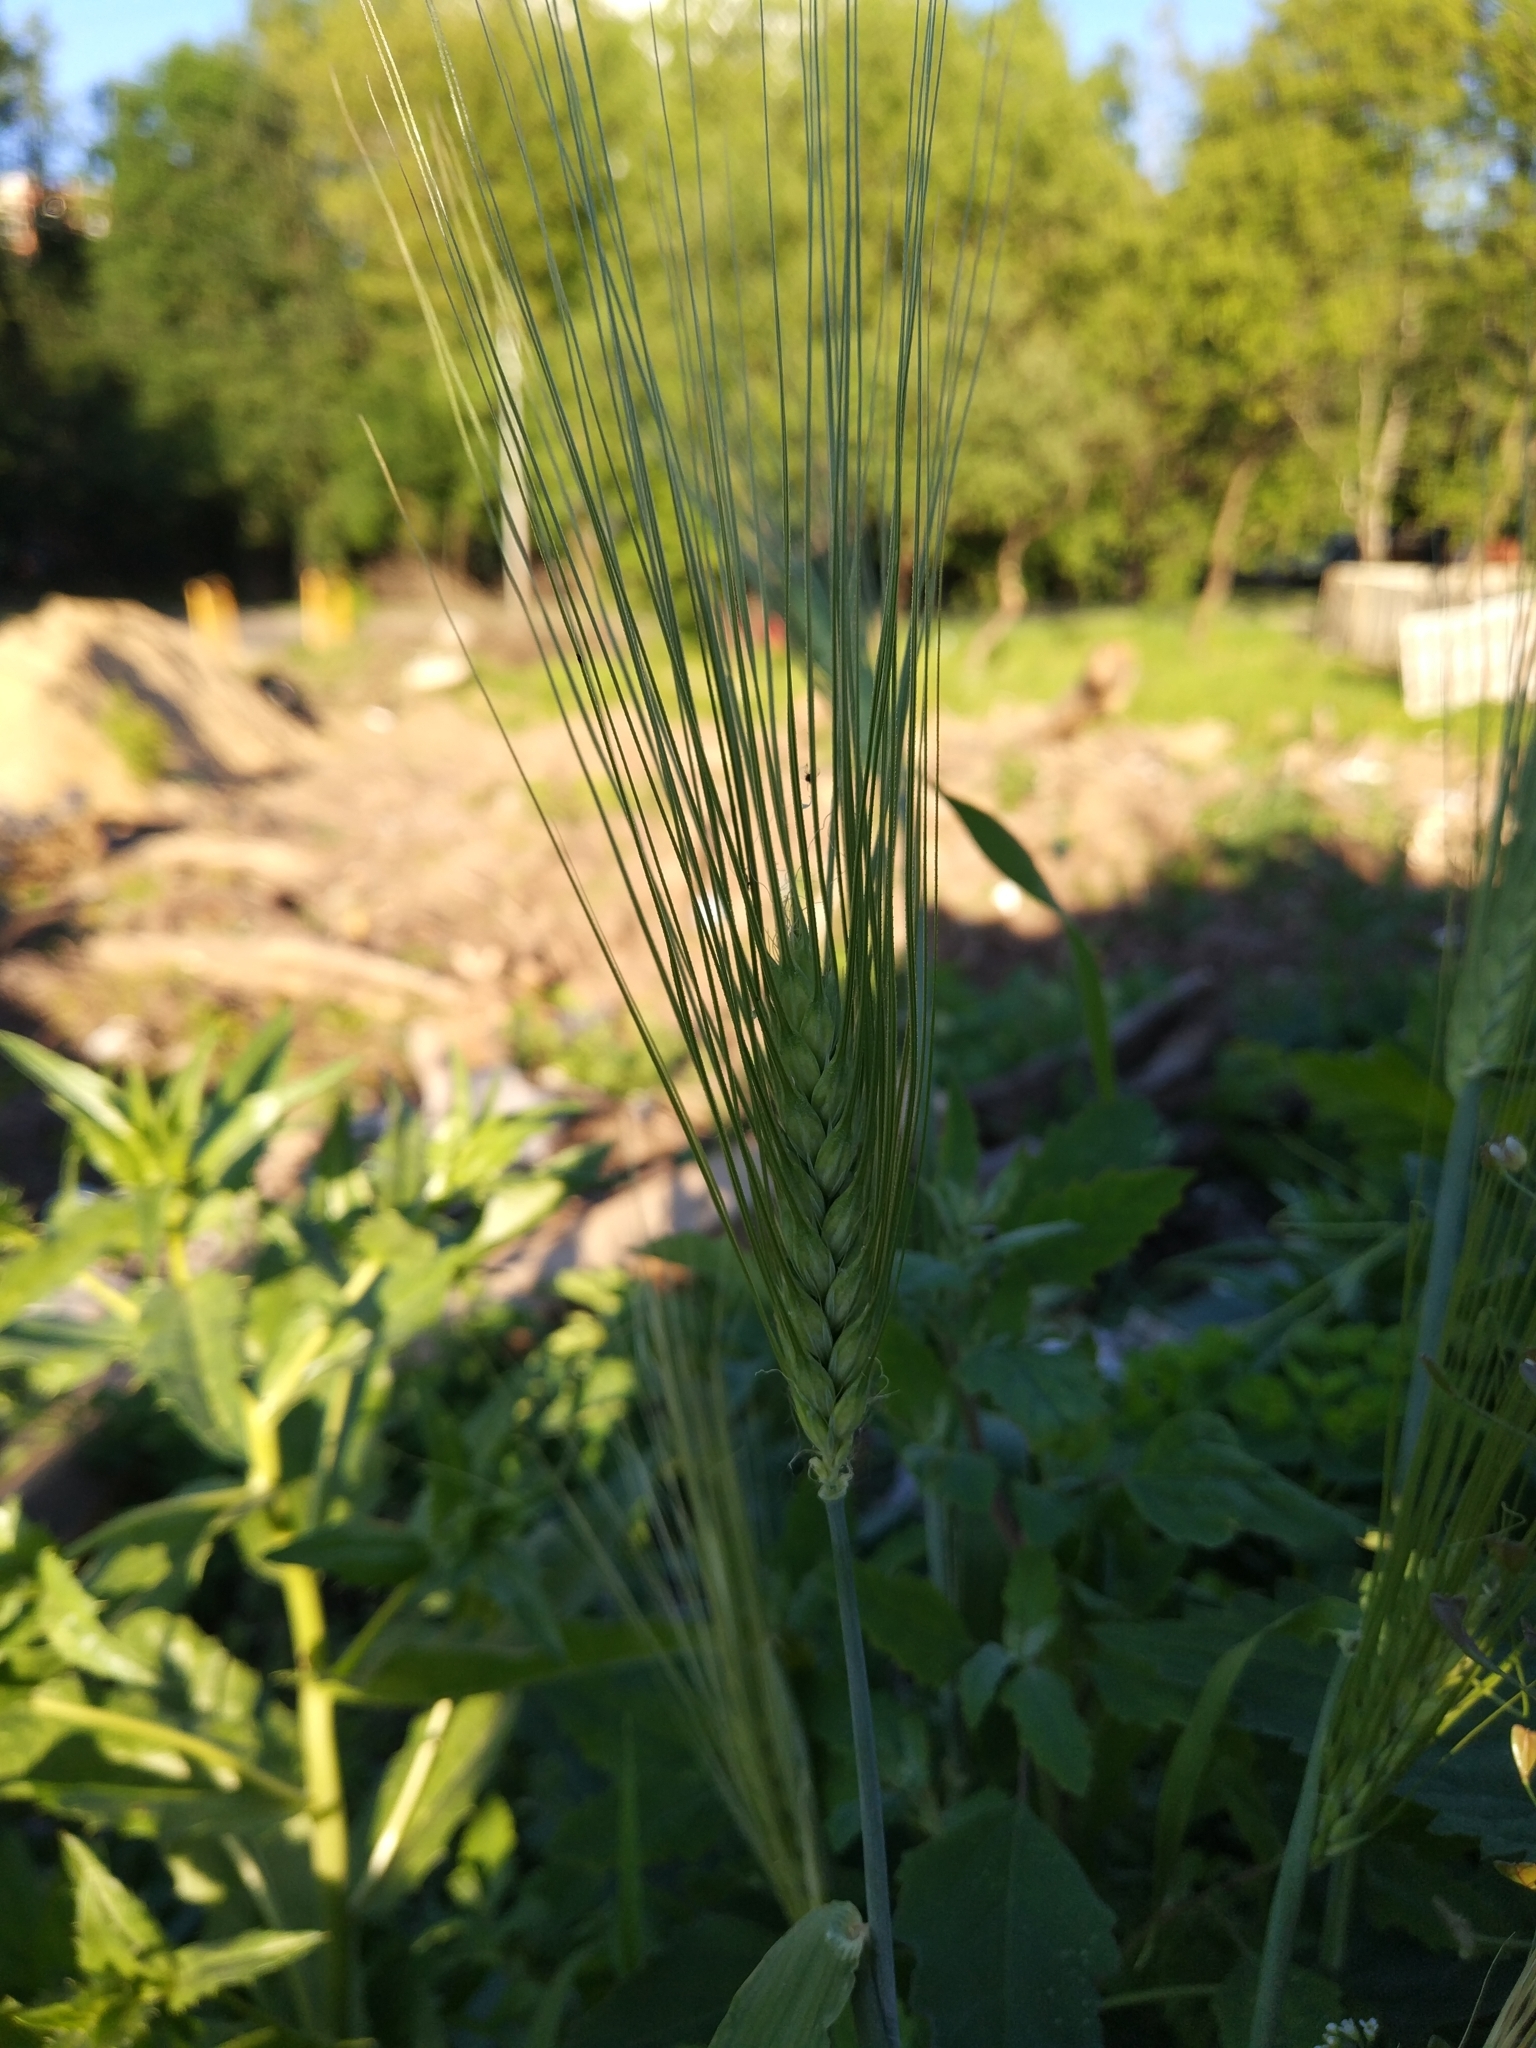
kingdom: Plantae
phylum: Tracheophyta
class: Liliopsida
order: Poales
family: Poaceae
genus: Triticum
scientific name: Triticum aestivum
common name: Common wheat
